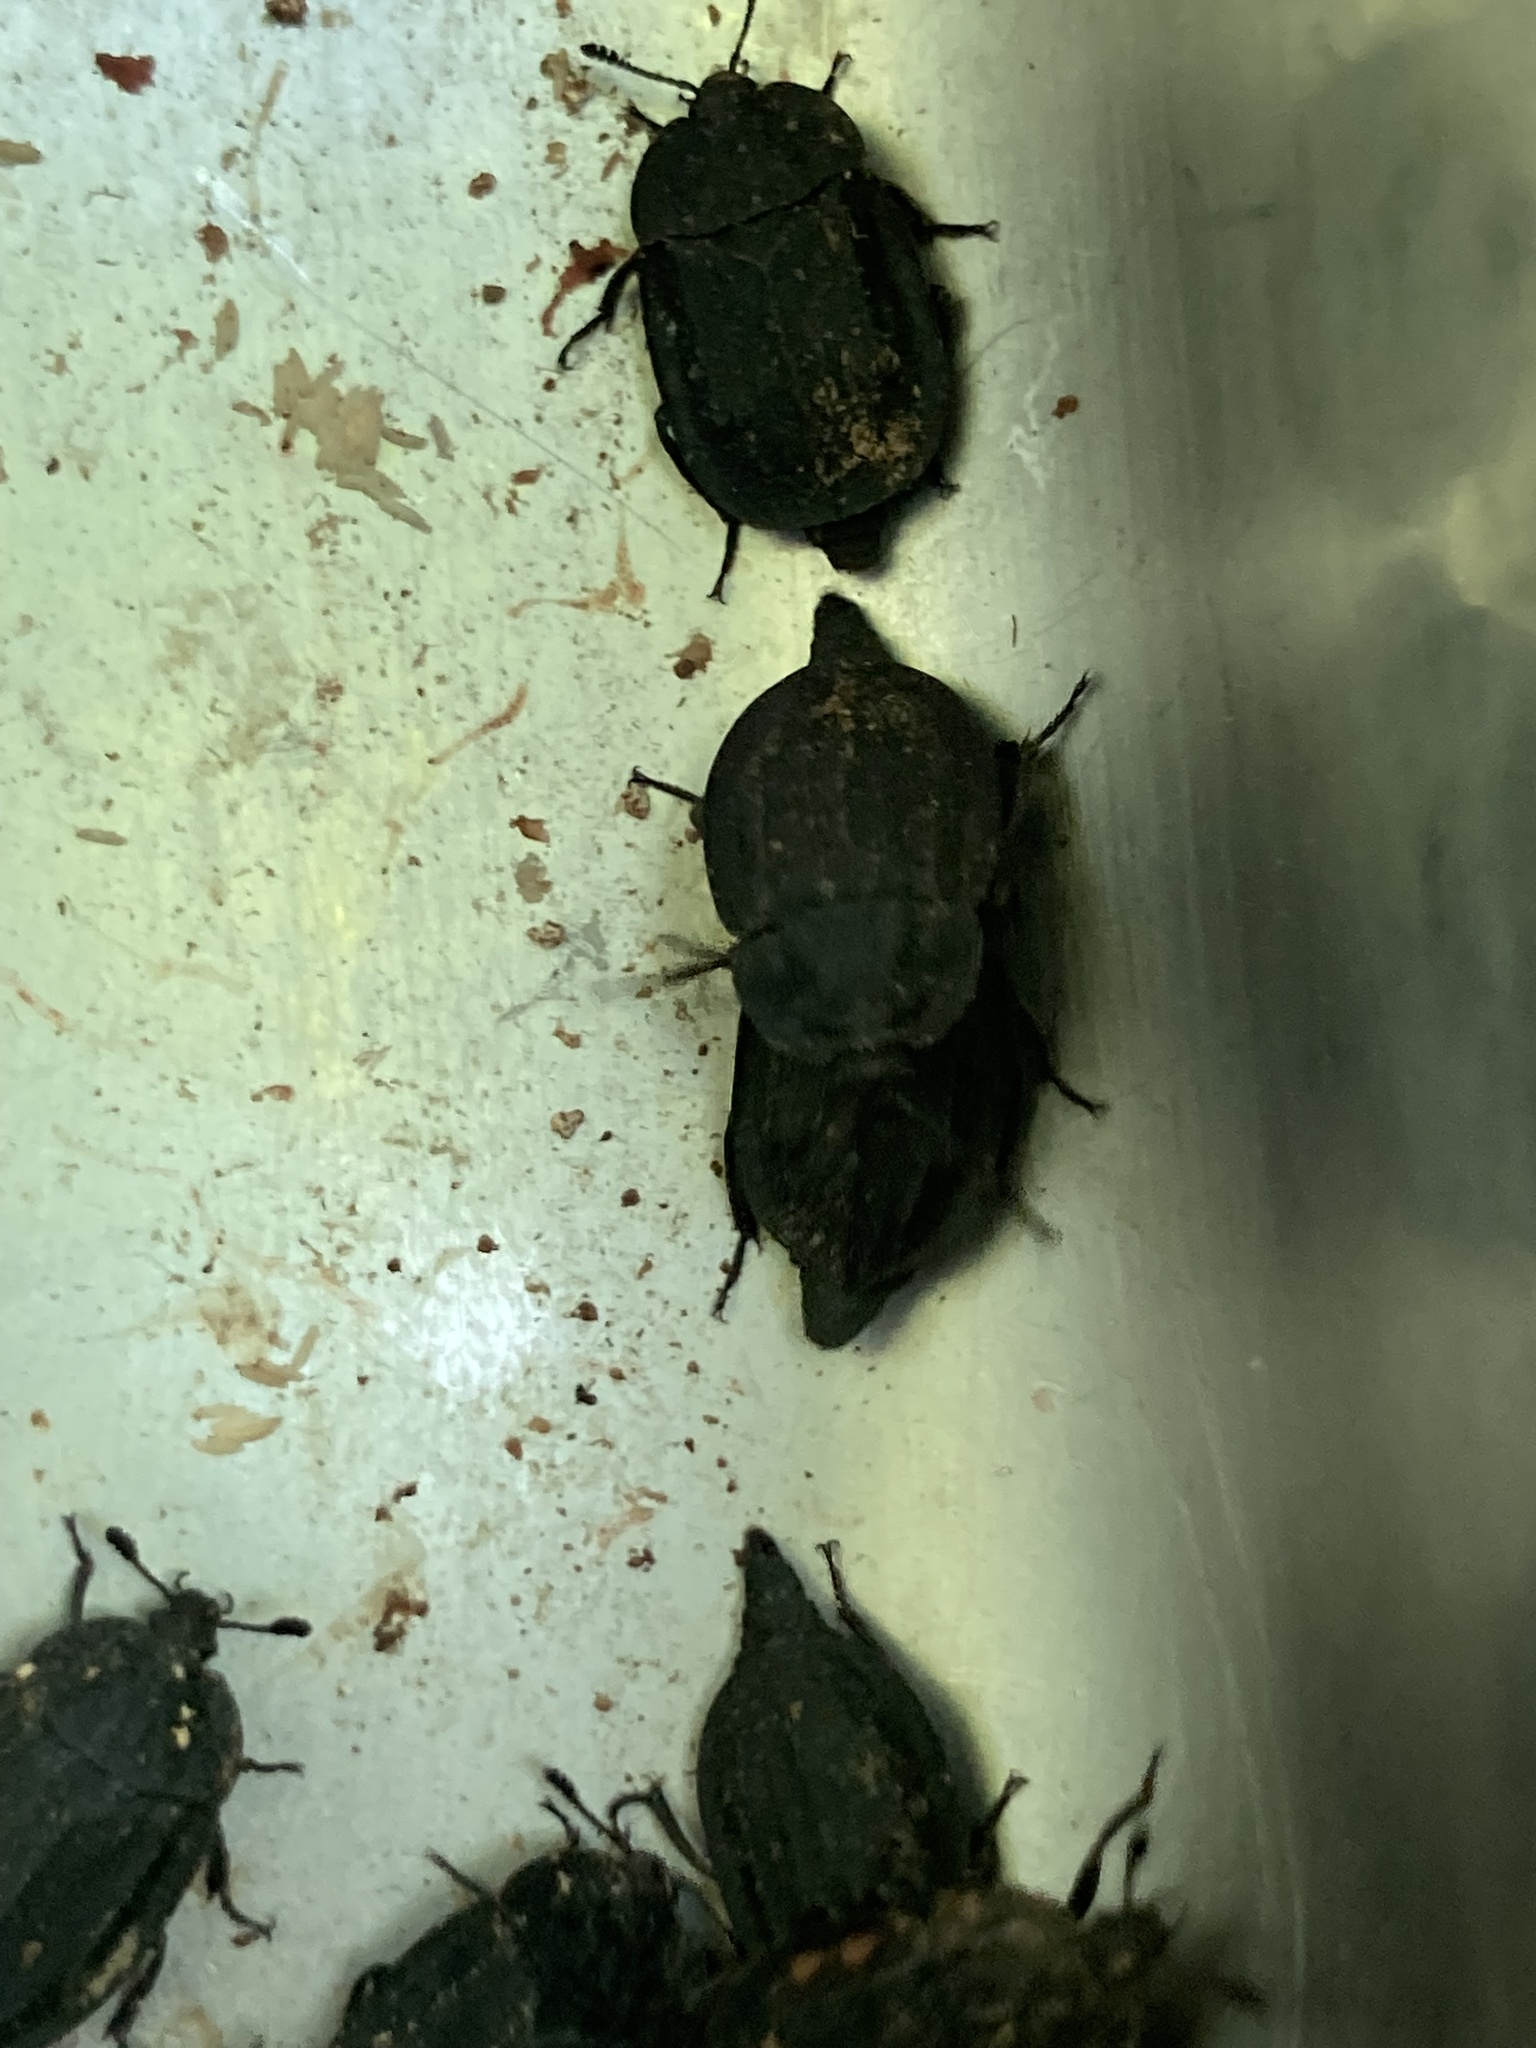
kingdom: Animalia
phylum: Arthropoda
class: Insecta
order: Coleoptera
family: Staphylinidae
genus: Oiceoptoma
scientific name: Oiceoptoma inaequale
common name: Ridged carrion beetle
